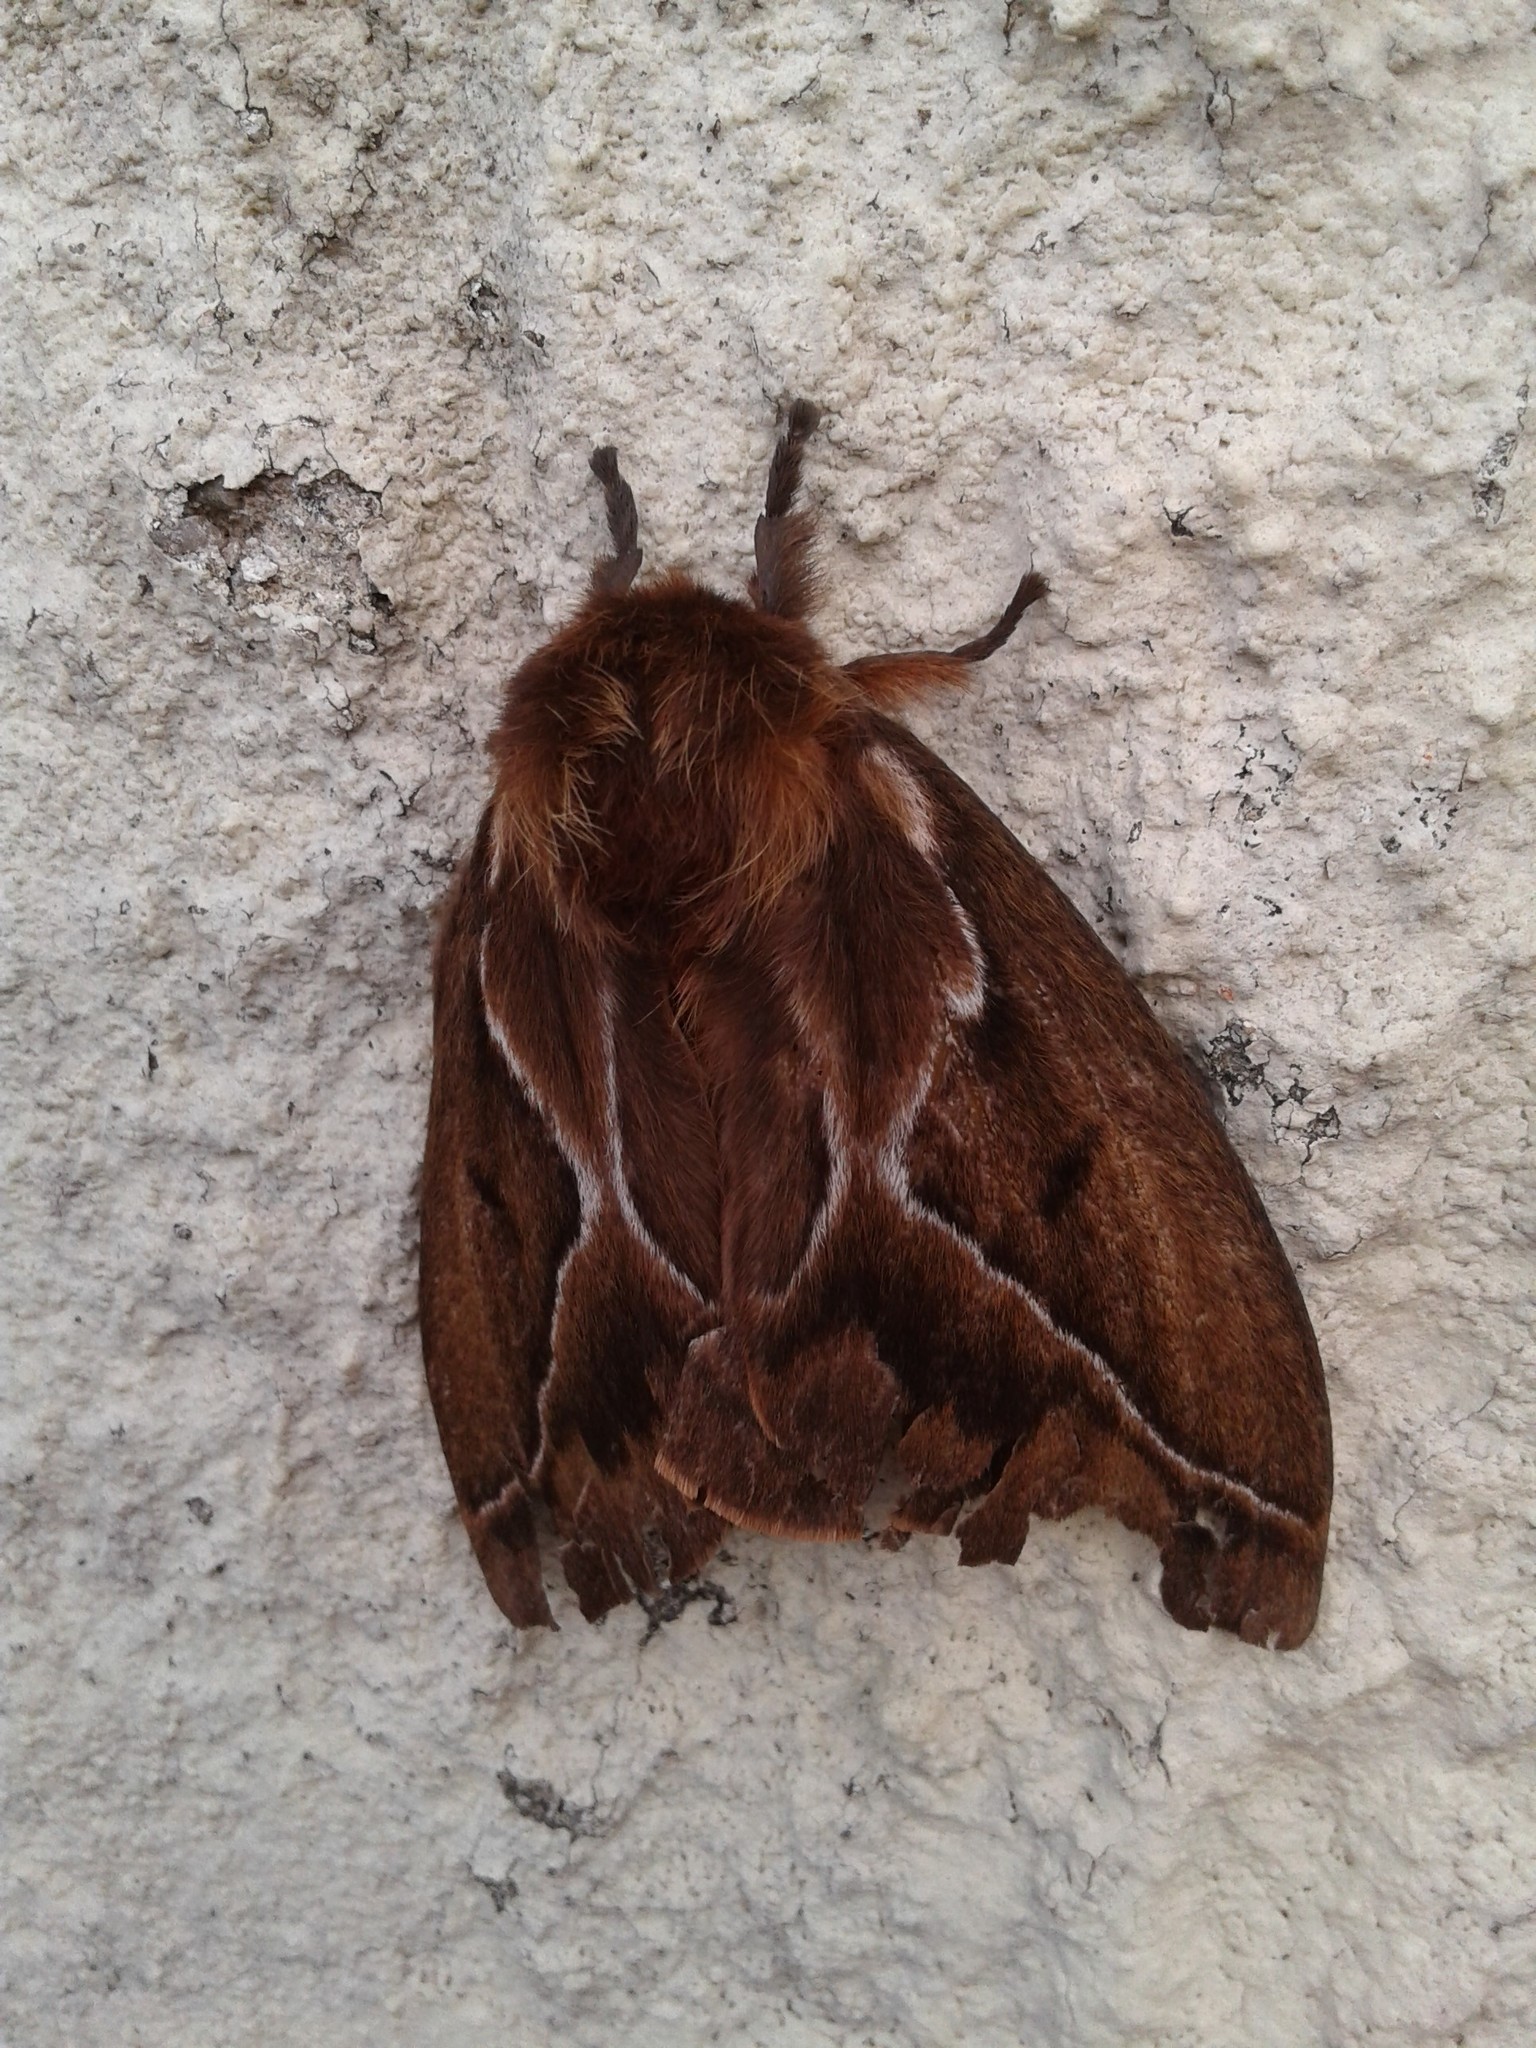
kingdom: Animalia
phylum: Arthropoda
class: Insecta
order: Lepidoptera
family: Saturniidae
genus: Dirphia
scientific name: Dirphia araucariae
